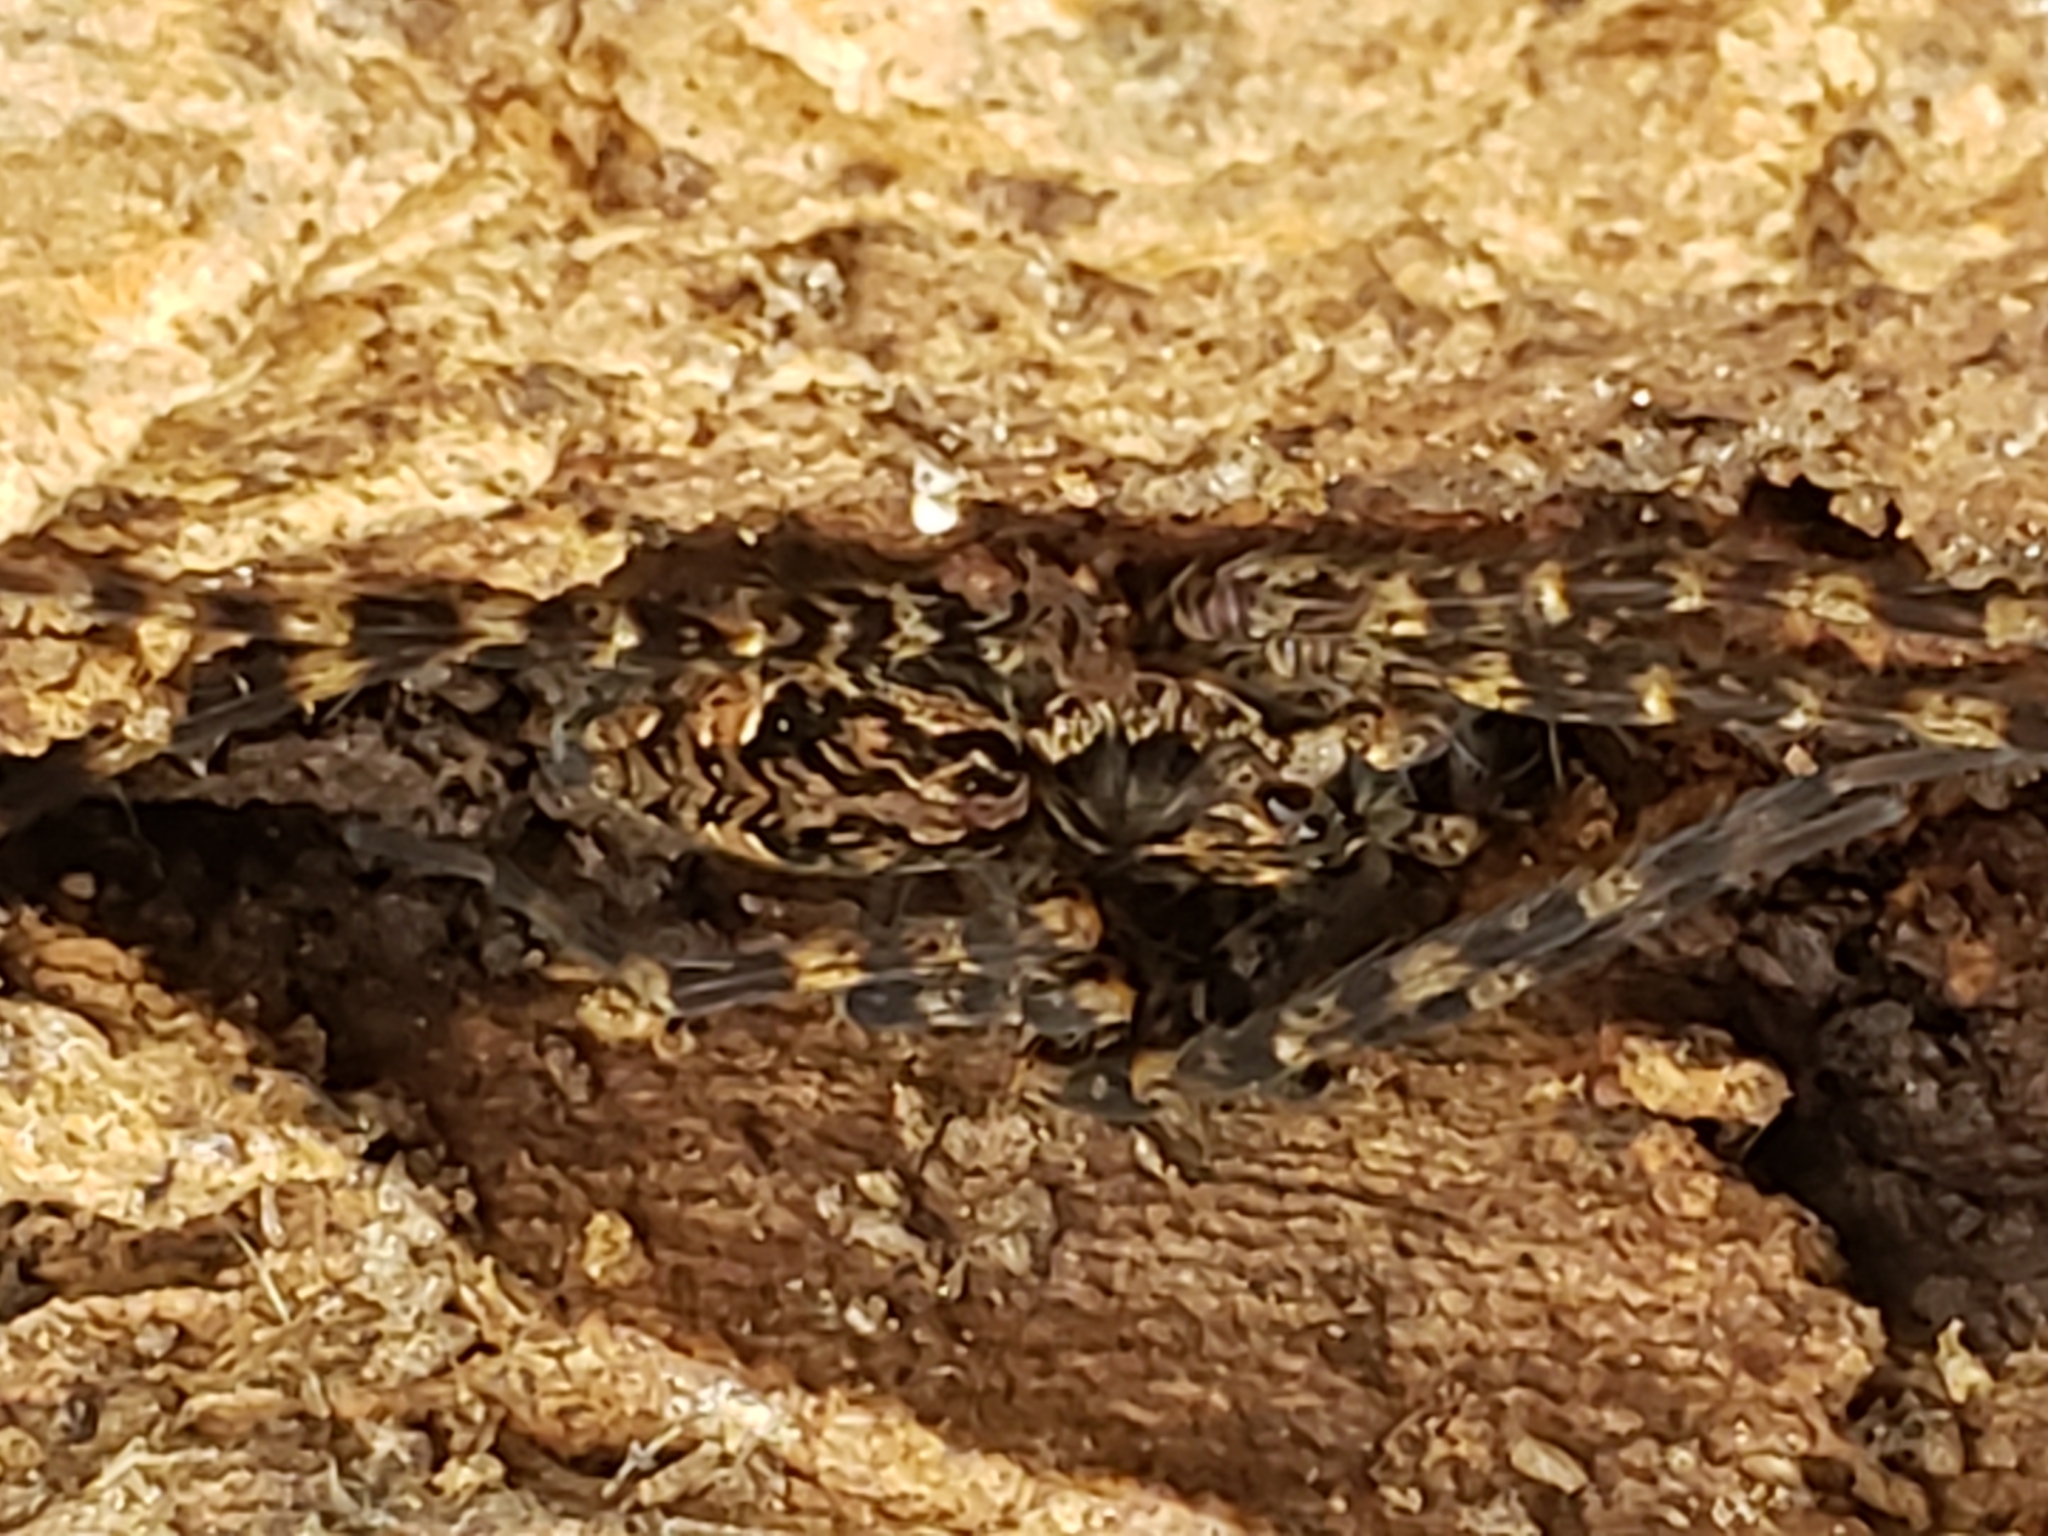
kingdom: Animalia
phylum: Arthropoda
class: Arachnida
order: Araneae
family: Pisauridae
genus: Dolomedes
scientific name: Dolomedes tenebrosus
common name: Dark fishing spider
